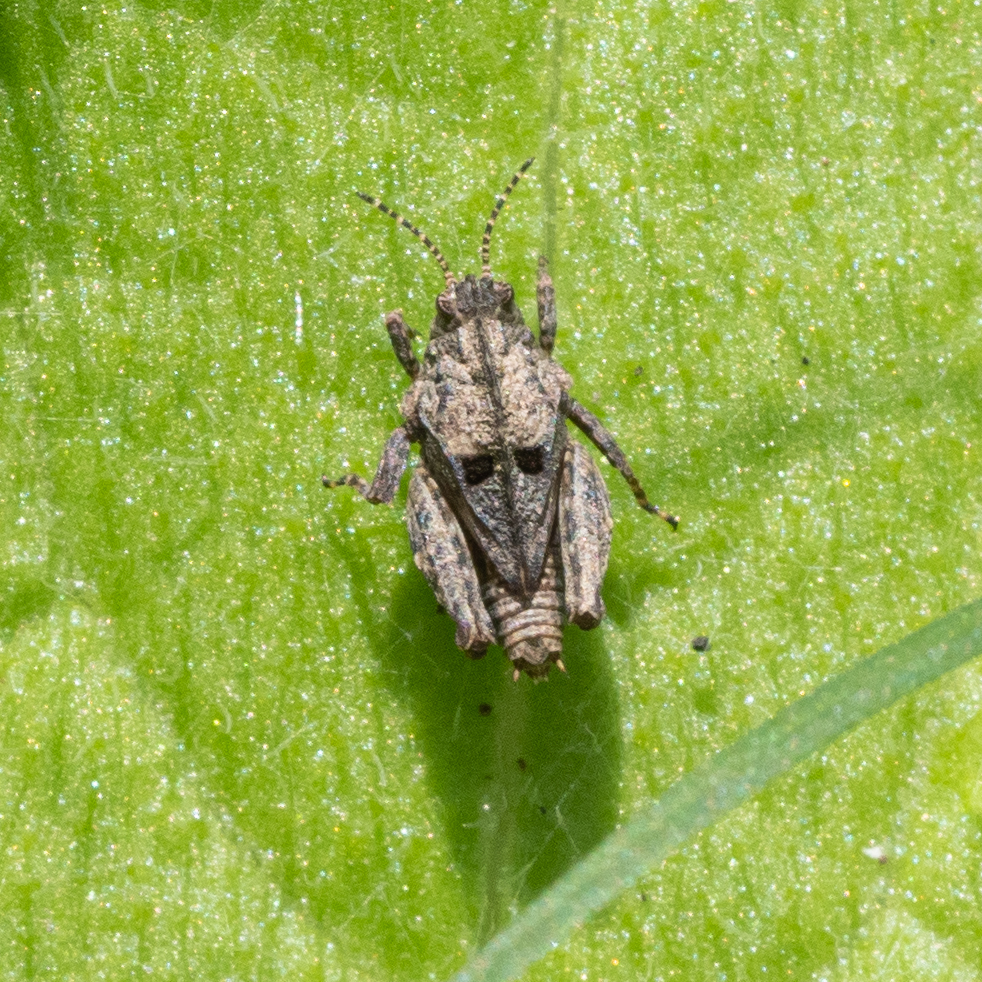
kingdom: Animalia
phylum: Arthropoda
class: Insecta
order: Orthoptera
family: Tetrigidae
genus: Tetrix
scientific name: Tetrix depressa
